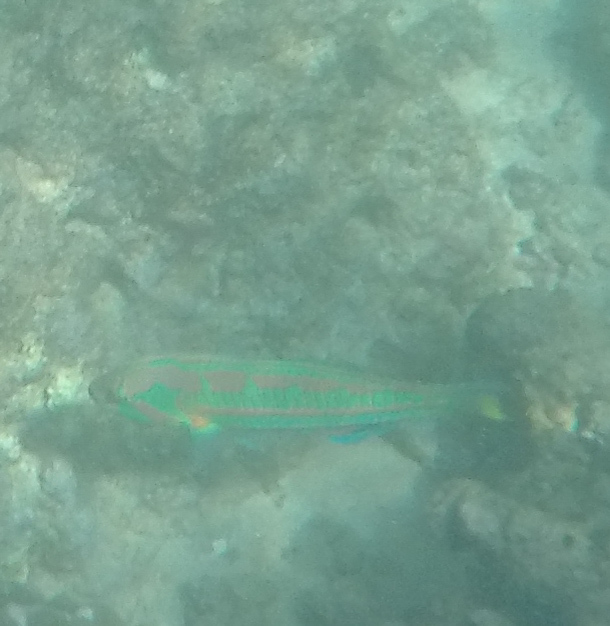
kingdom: Animalia
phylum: Chordata
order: Perciformes
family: Labridae
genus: Thalassoma
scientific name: Thalassoma trilobatum
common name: Christmas wrasse
